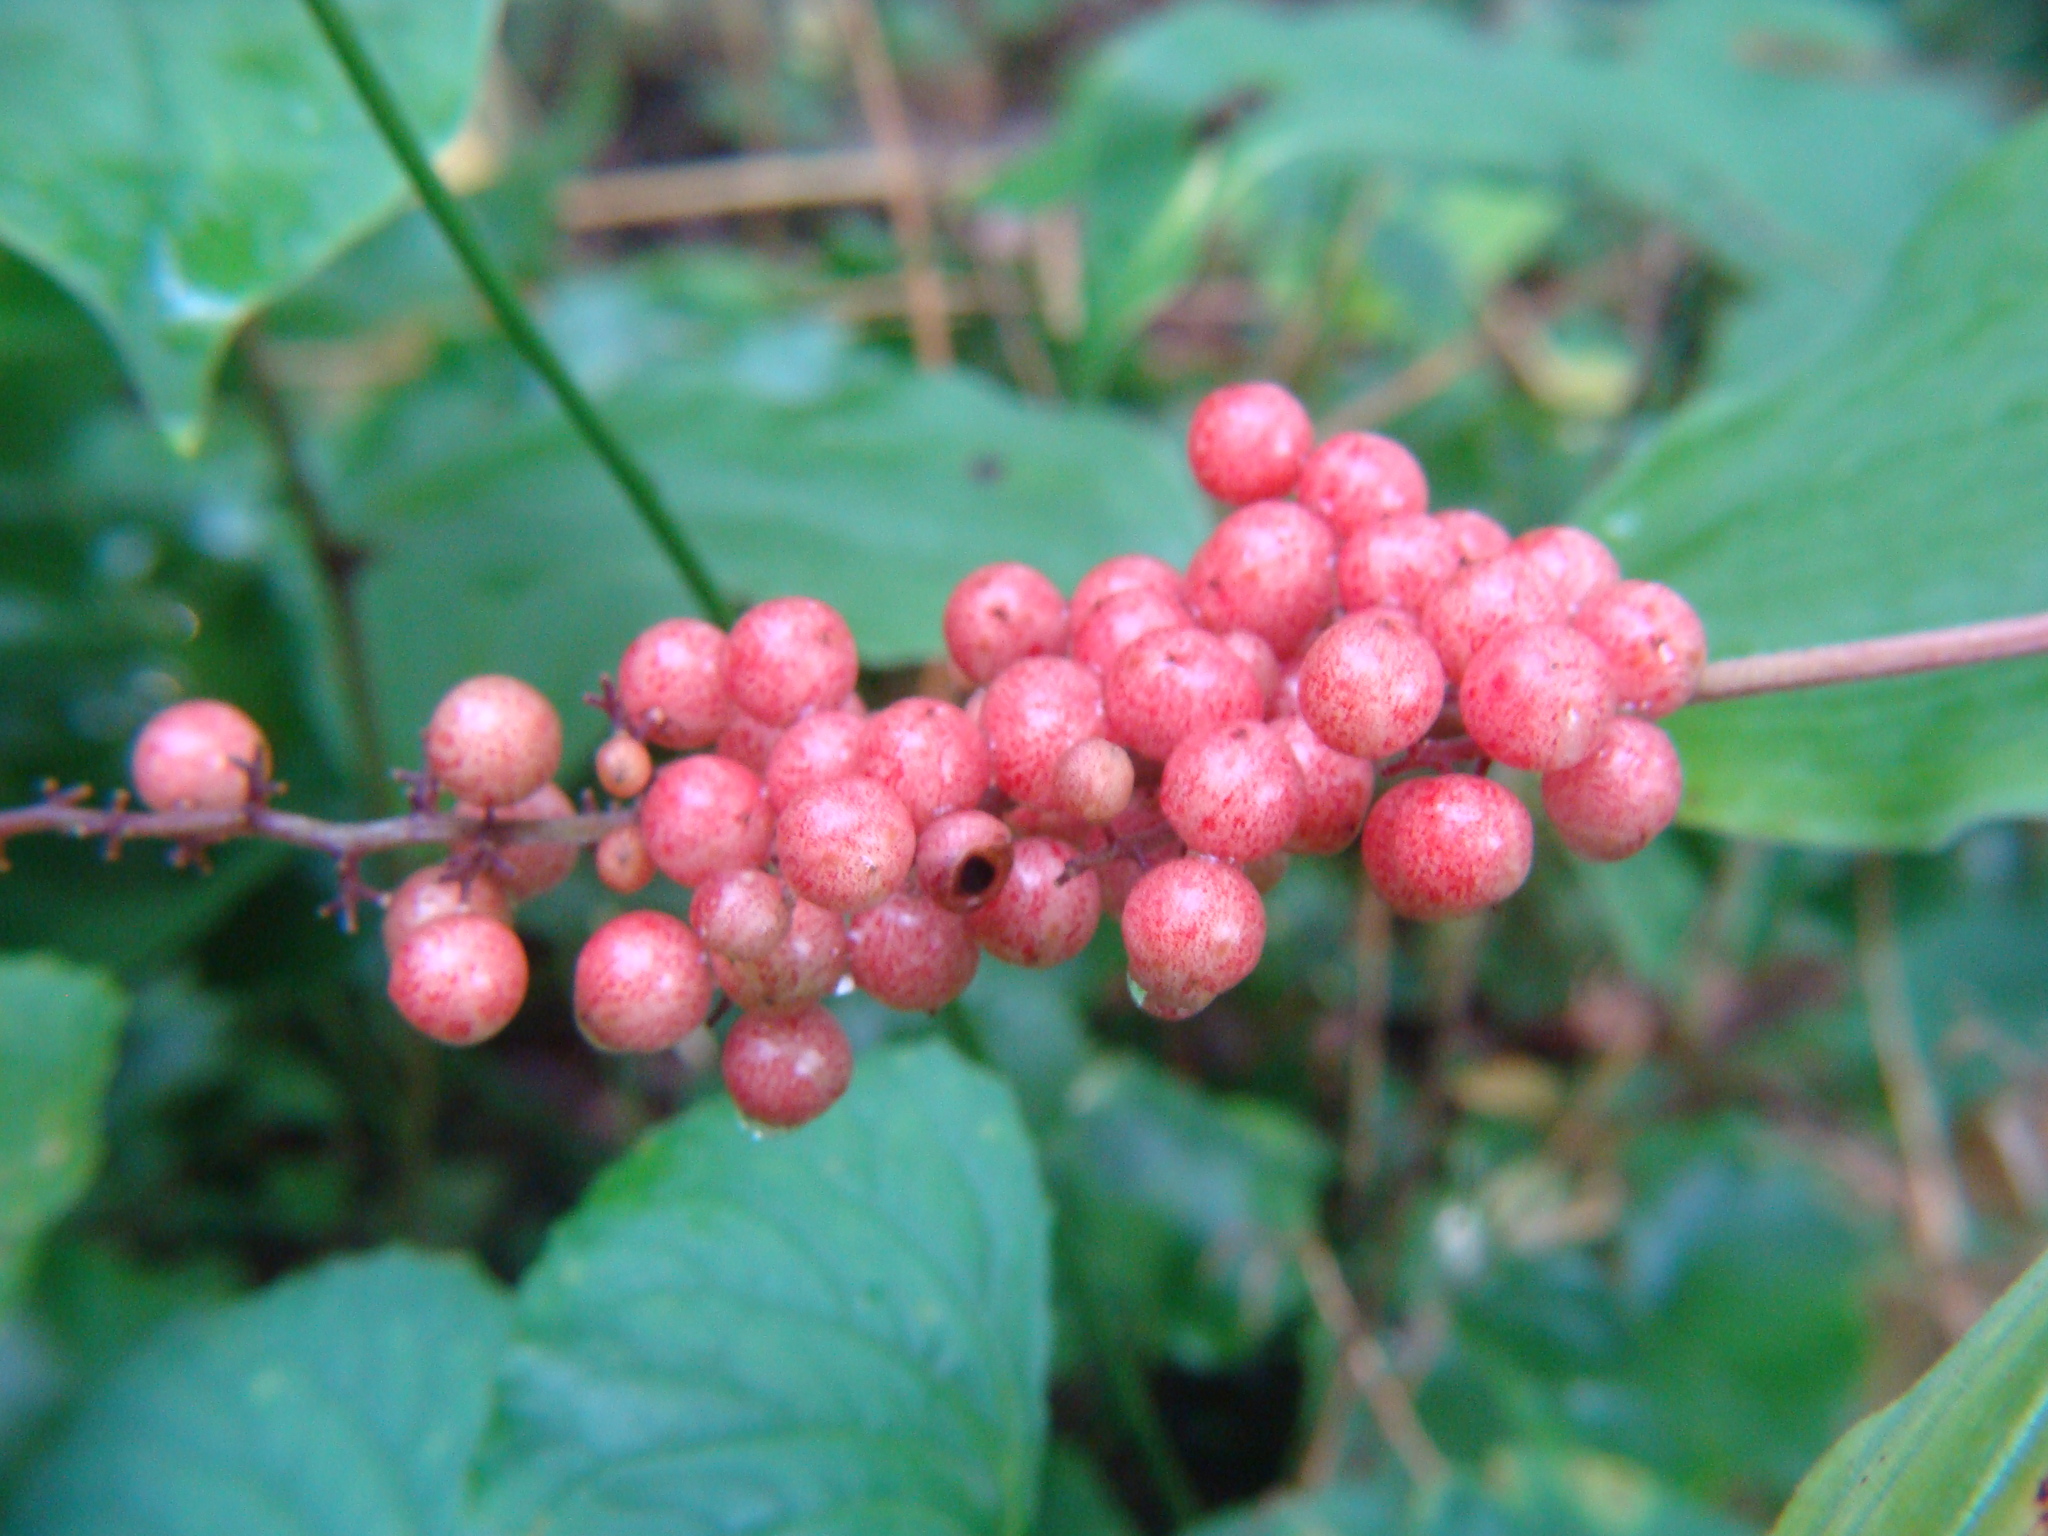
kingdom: Plantae
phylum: Tracheophyta
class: Liliopsida
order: Asparagales
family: Asparagaceae
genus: Maianthemum
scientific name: Maianthemum racemosum
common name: False spikenard
